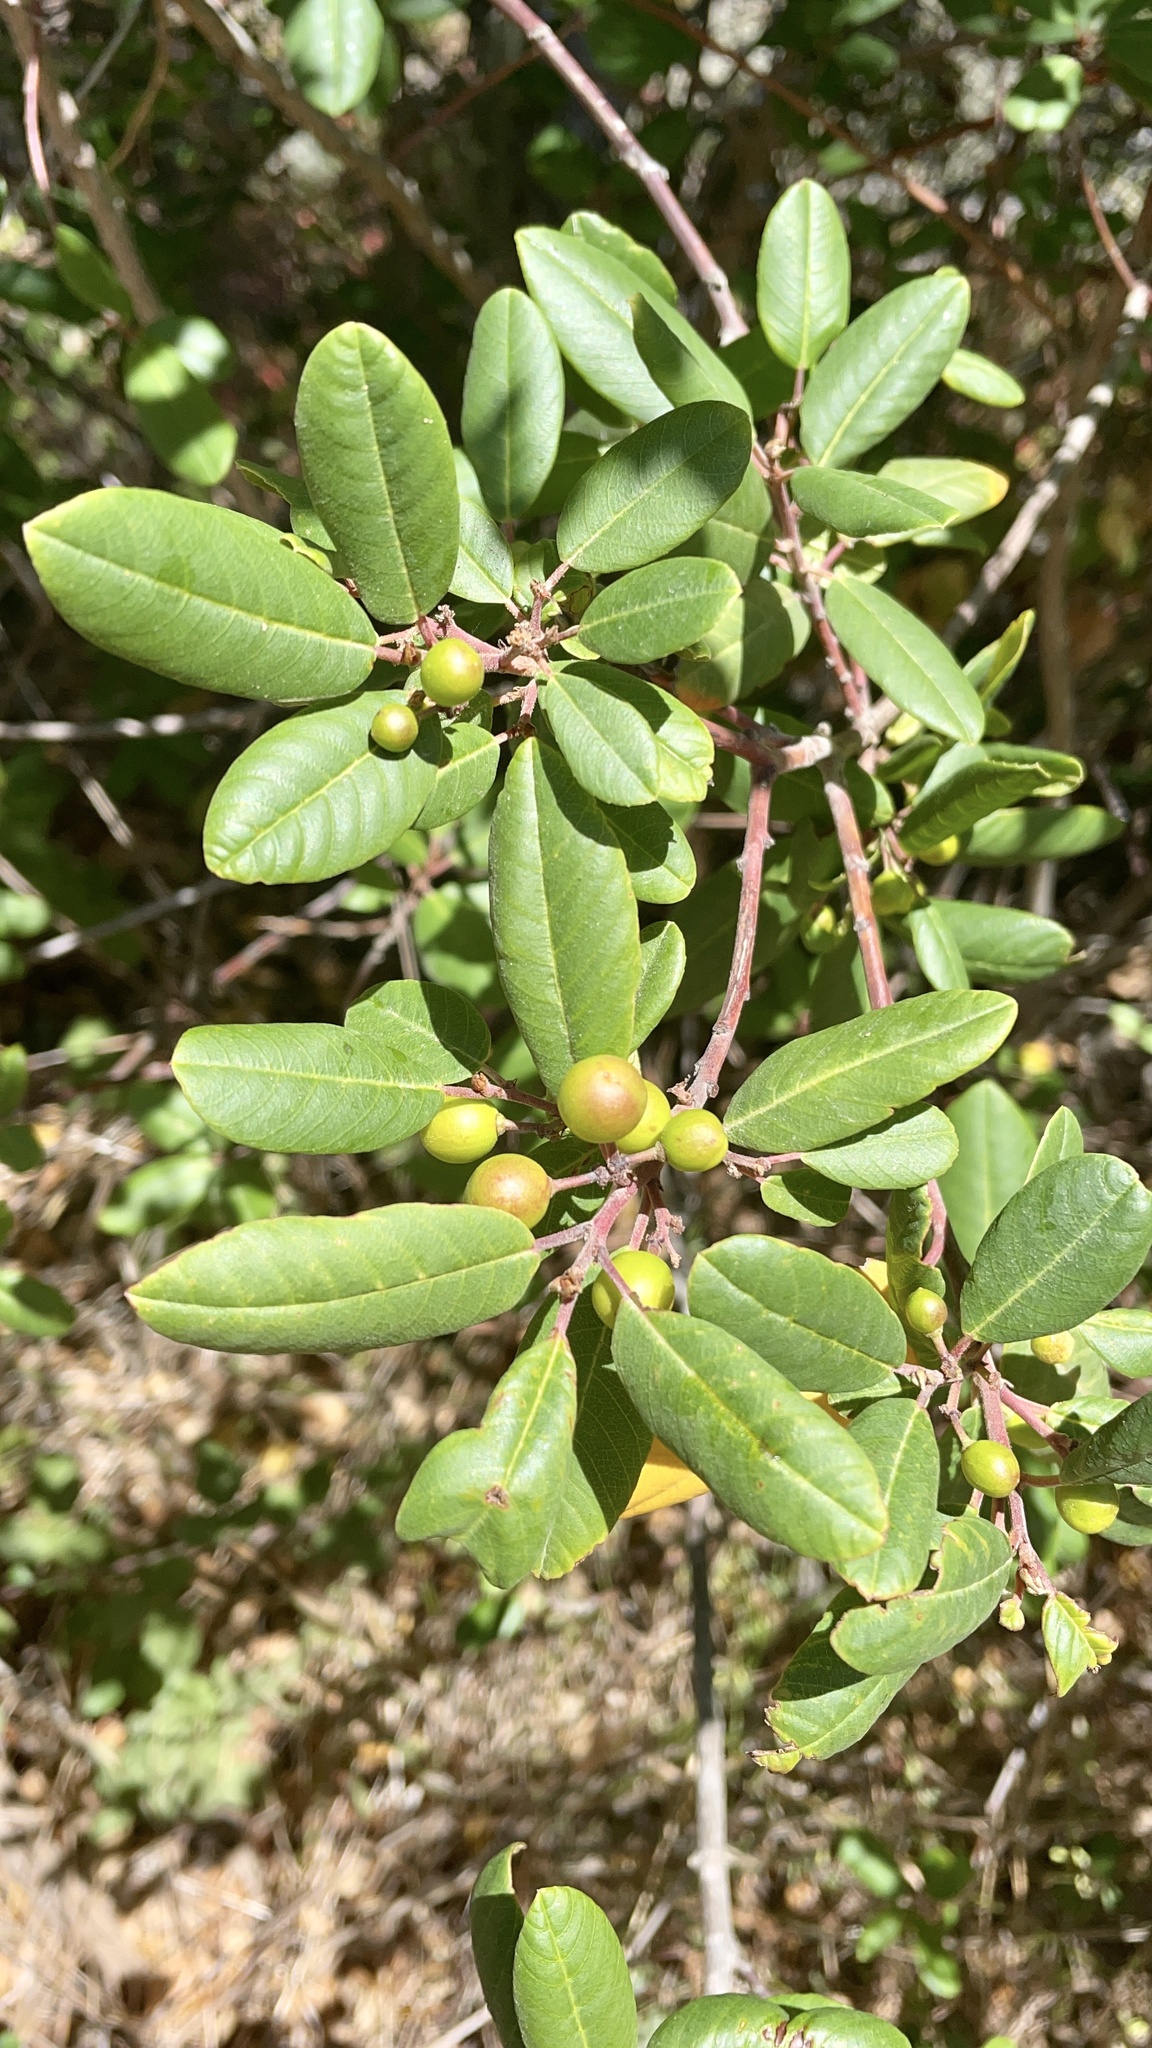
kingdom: Plantae
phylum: Tracheophyta
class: Magnoliopsida
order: Rosales
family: Rhamnaceae
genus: Frangula
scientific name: Frangula californica
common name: California buckthorn
